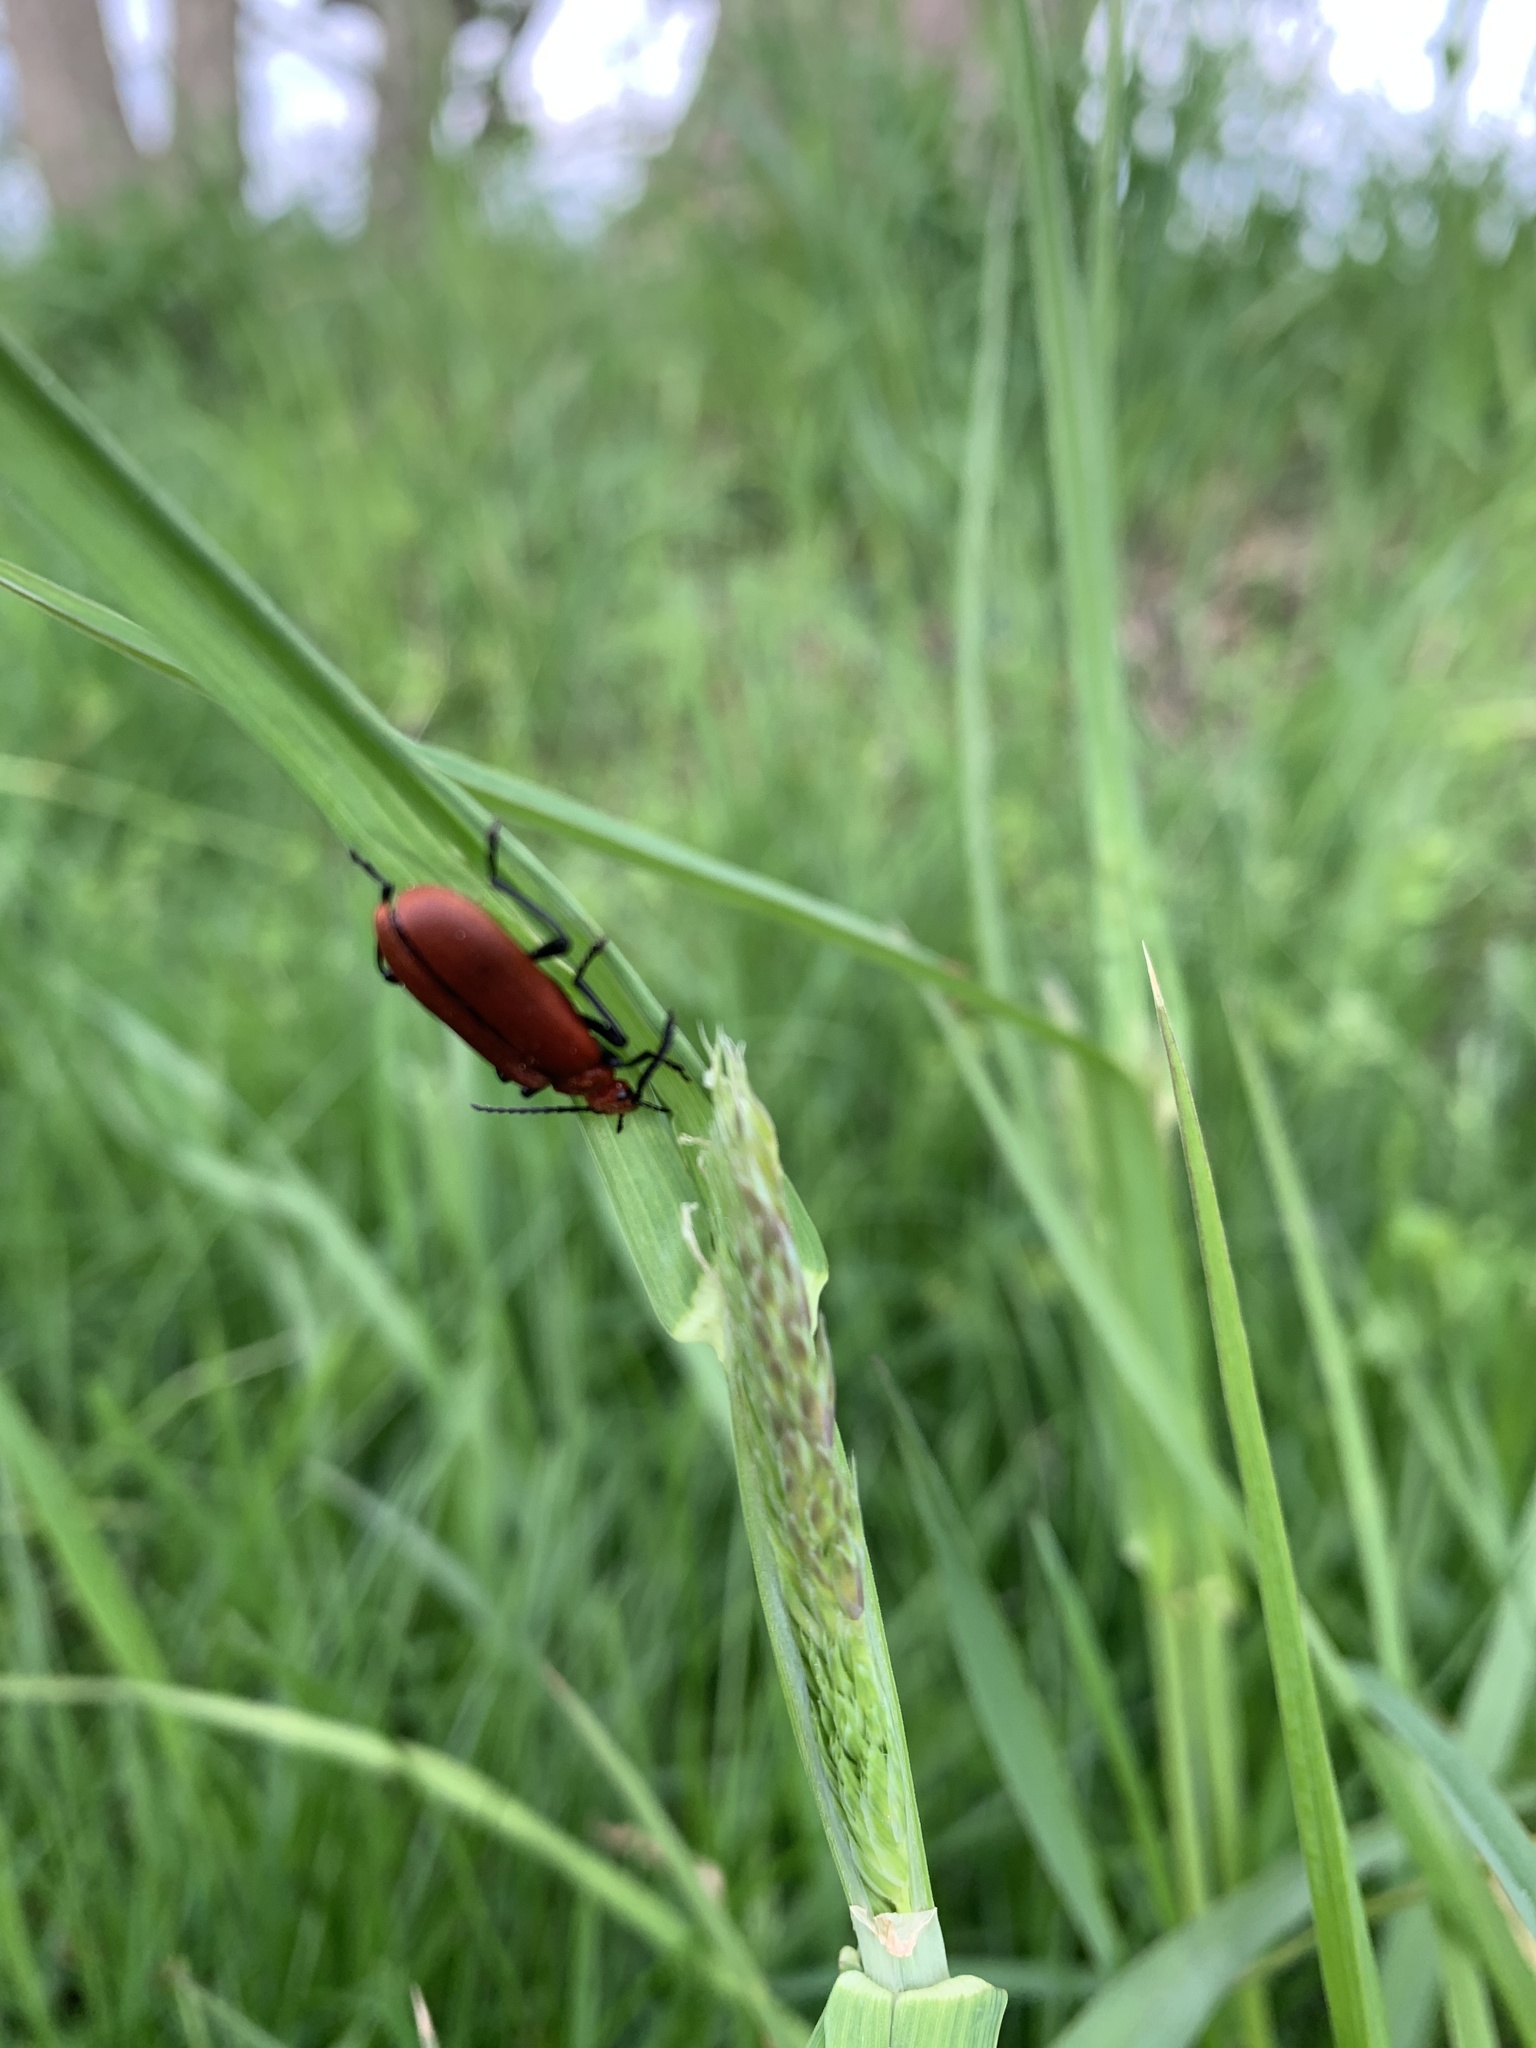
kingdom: Animalia
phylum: Arthropoda
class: Insecta
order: Coleoptera
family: Pyrochroidae
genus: Pyrochroa
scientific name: Pyrochroa serraticornis
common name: Red-headed cardinal beetle
